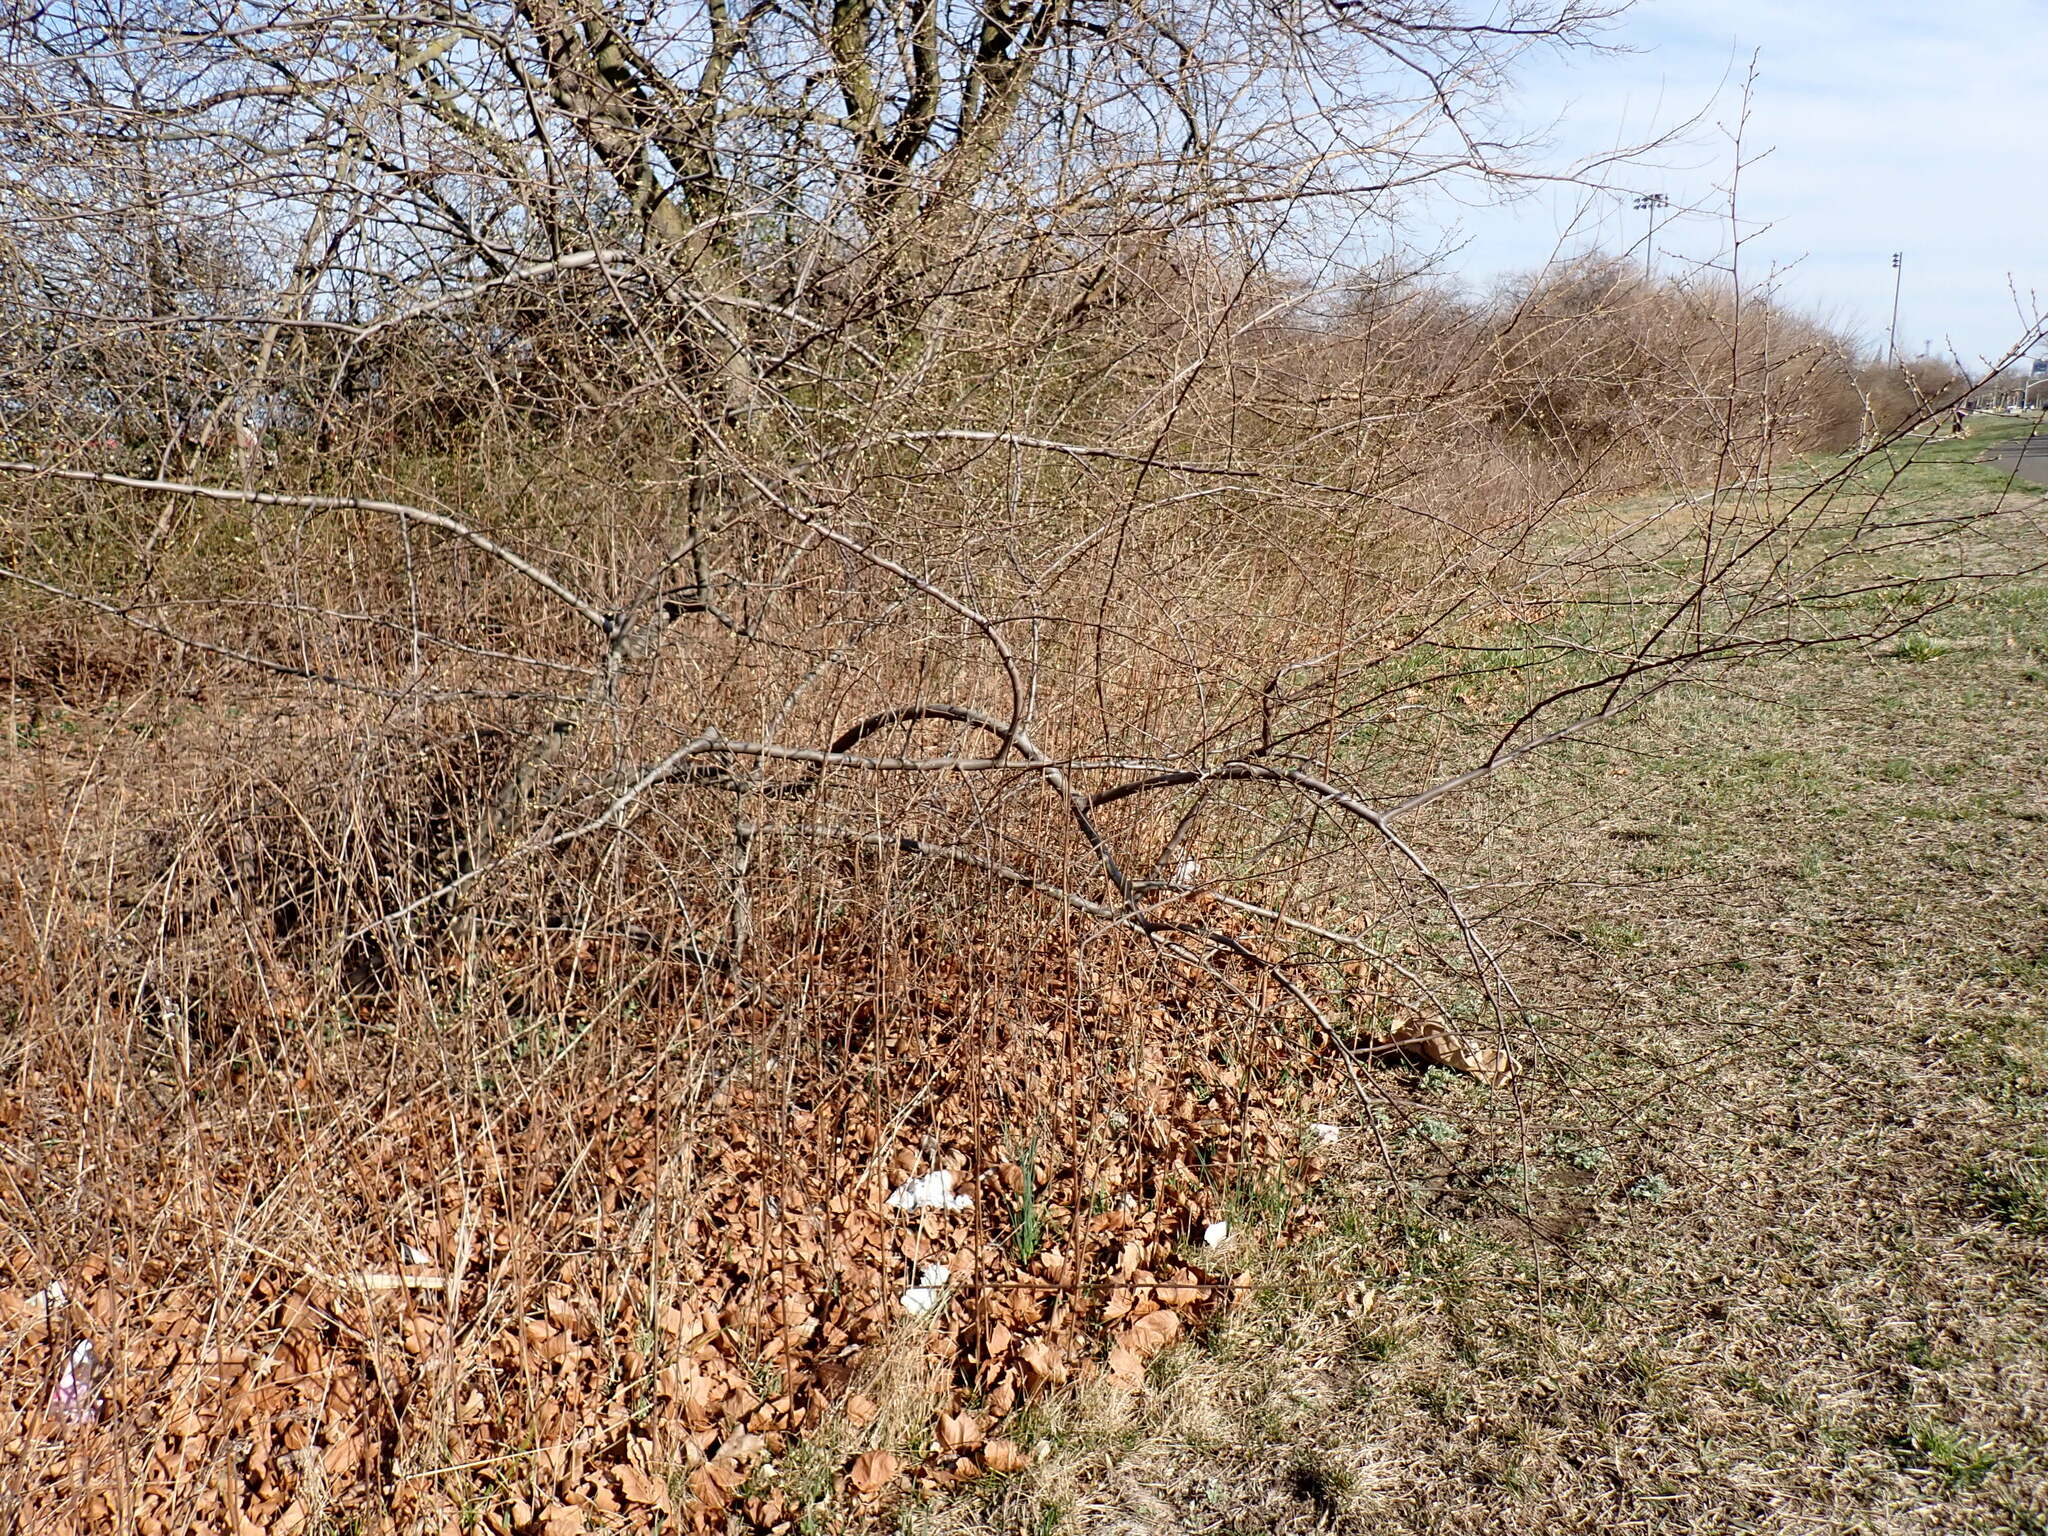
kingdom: Plantae
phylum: Tracheophyta
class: Magnoliopsida
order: Rosales
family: Elaeagnaceae
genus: Elaeagnus
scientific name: Elaeagnus umbellata
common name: Autumn olive
